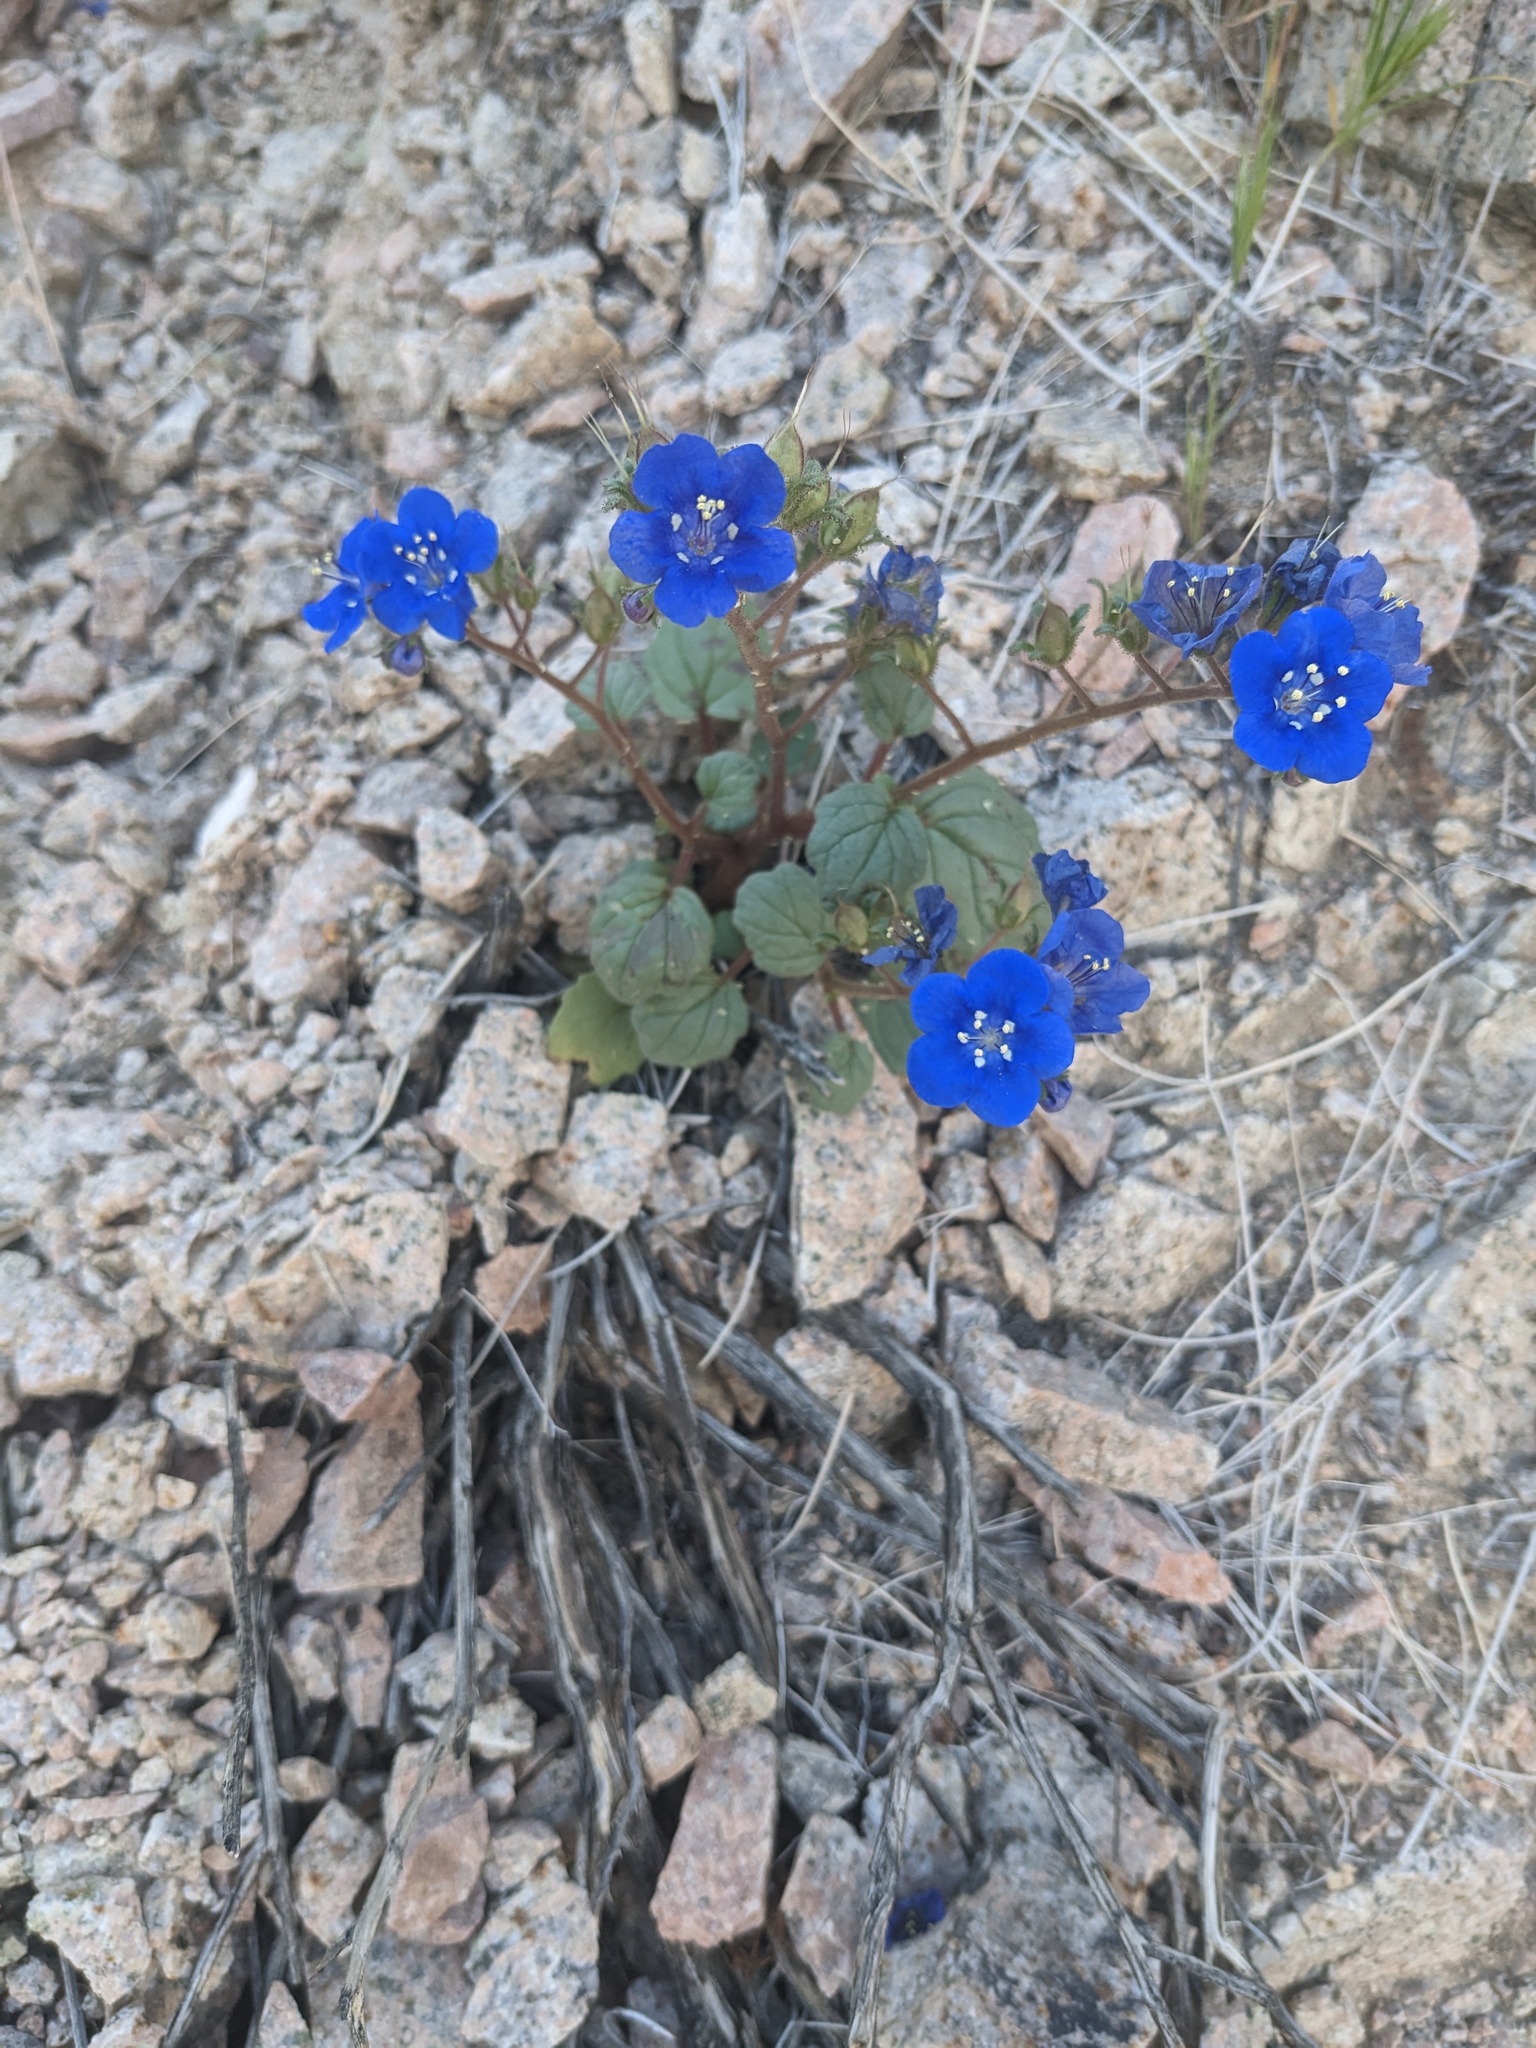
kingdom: Plantae
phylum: Tracheophyta
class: Magnoliopsida
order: Boraginales
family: Hydrophyllaceae
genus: Phacelia
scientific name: Phacelia nashiana
